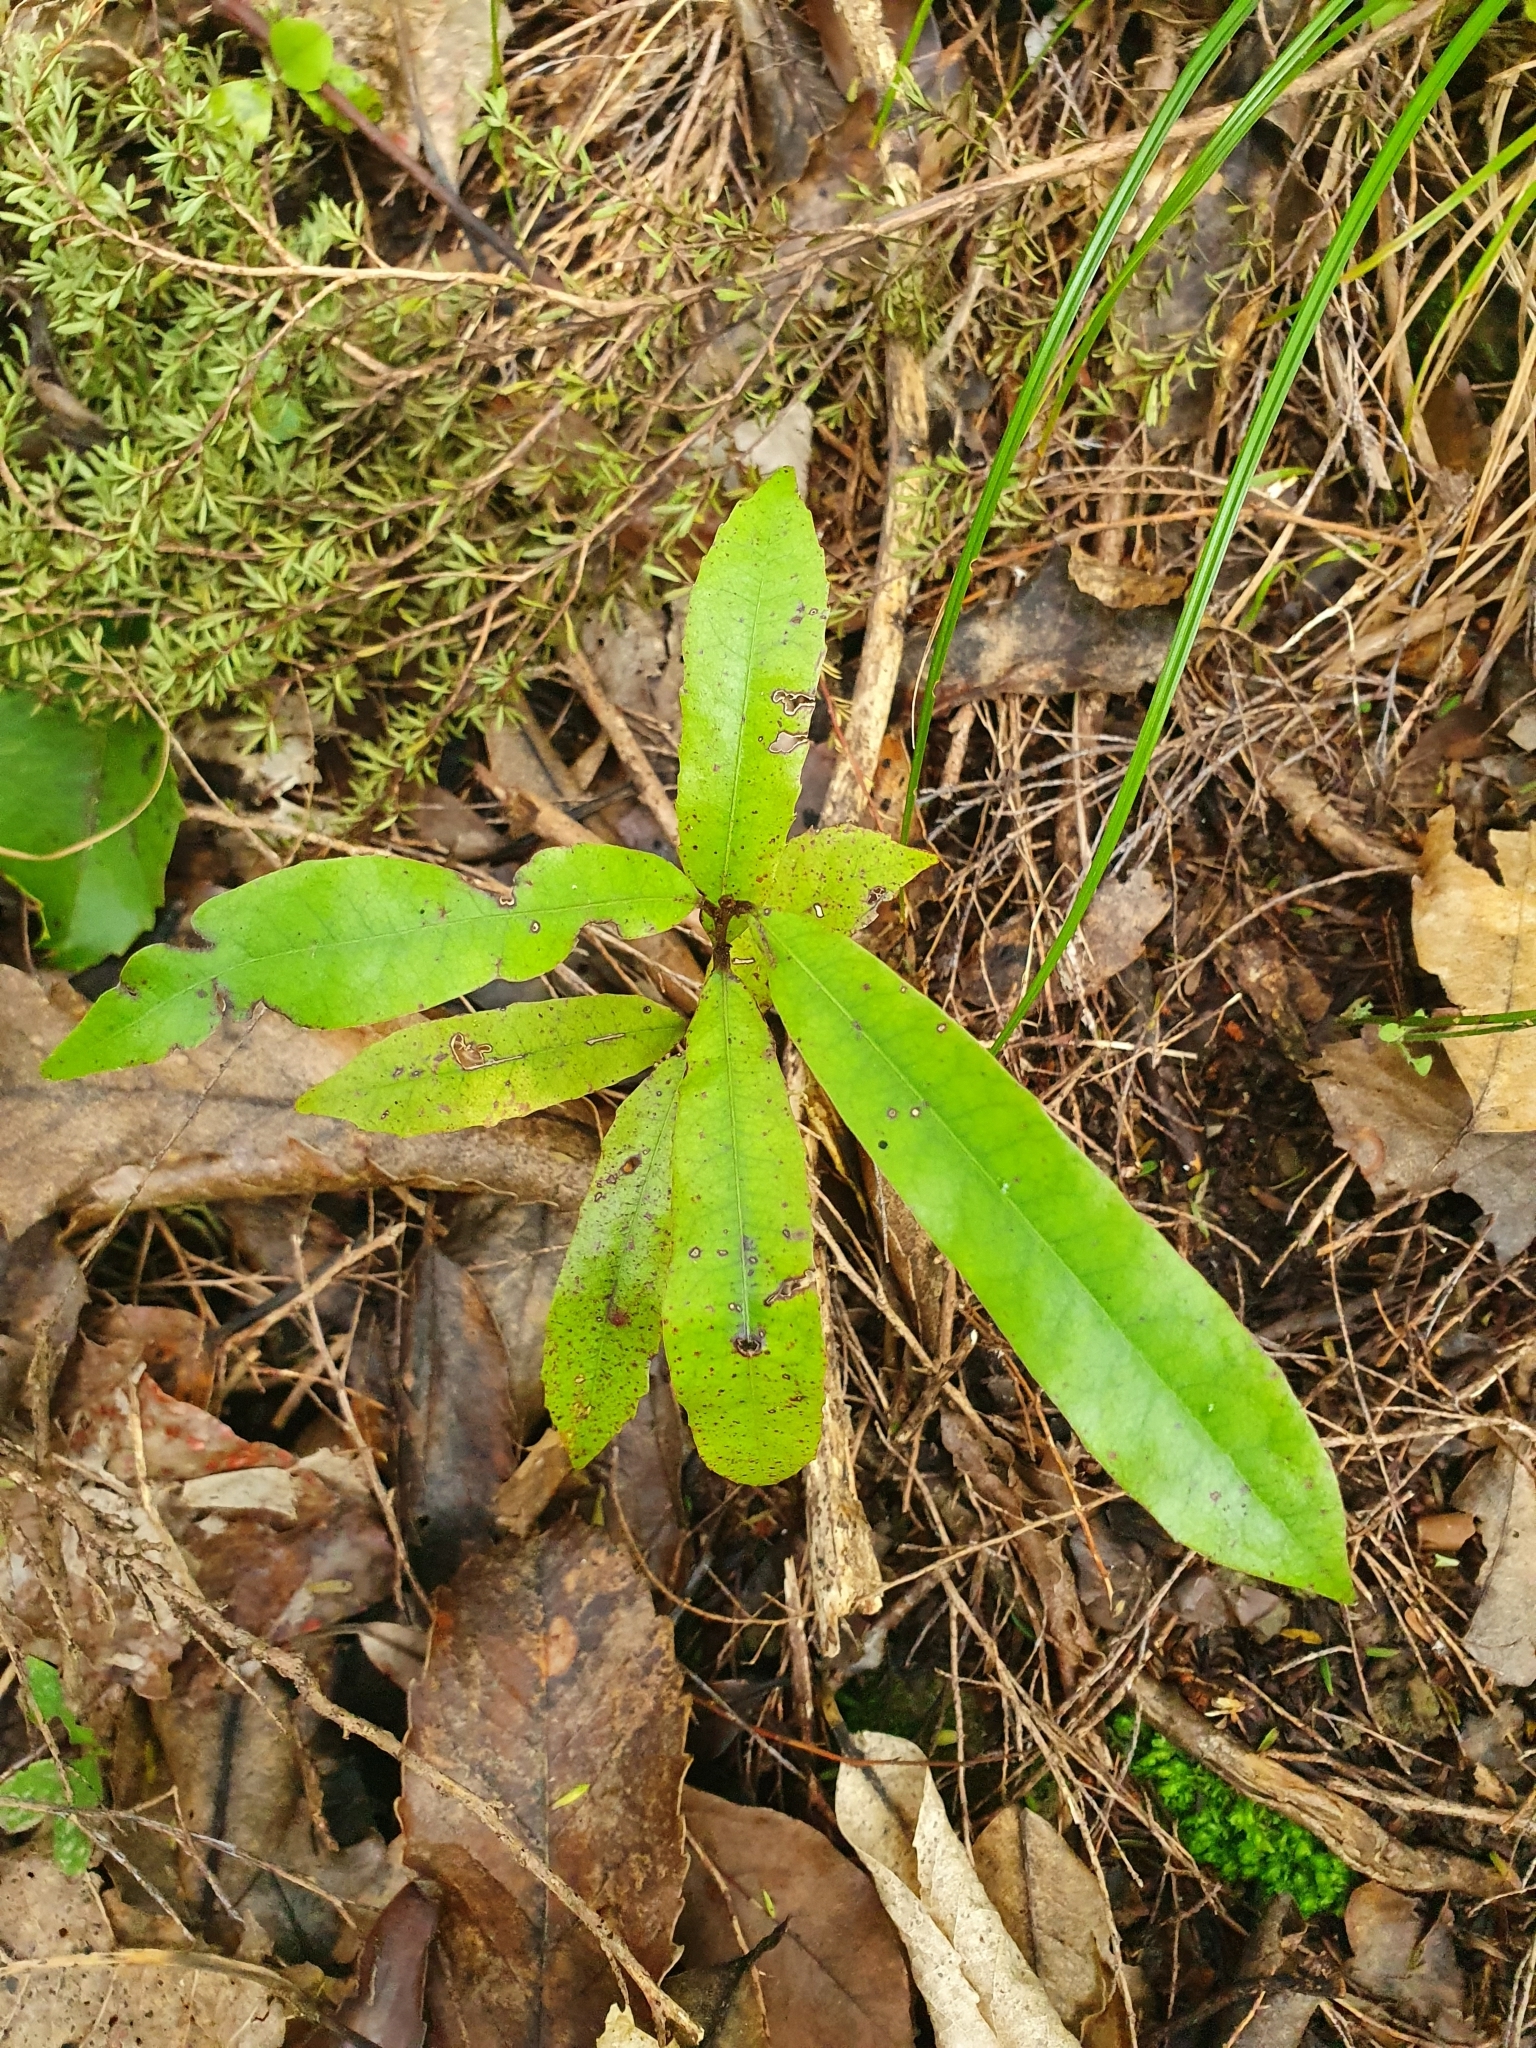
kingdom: Plantae
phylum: Tracheophyta
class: Magnoliopsida
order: Oxalidales
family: Elaeocarpaceae
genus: Elaeocarpus
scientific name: Elaeocarpus dentatus
